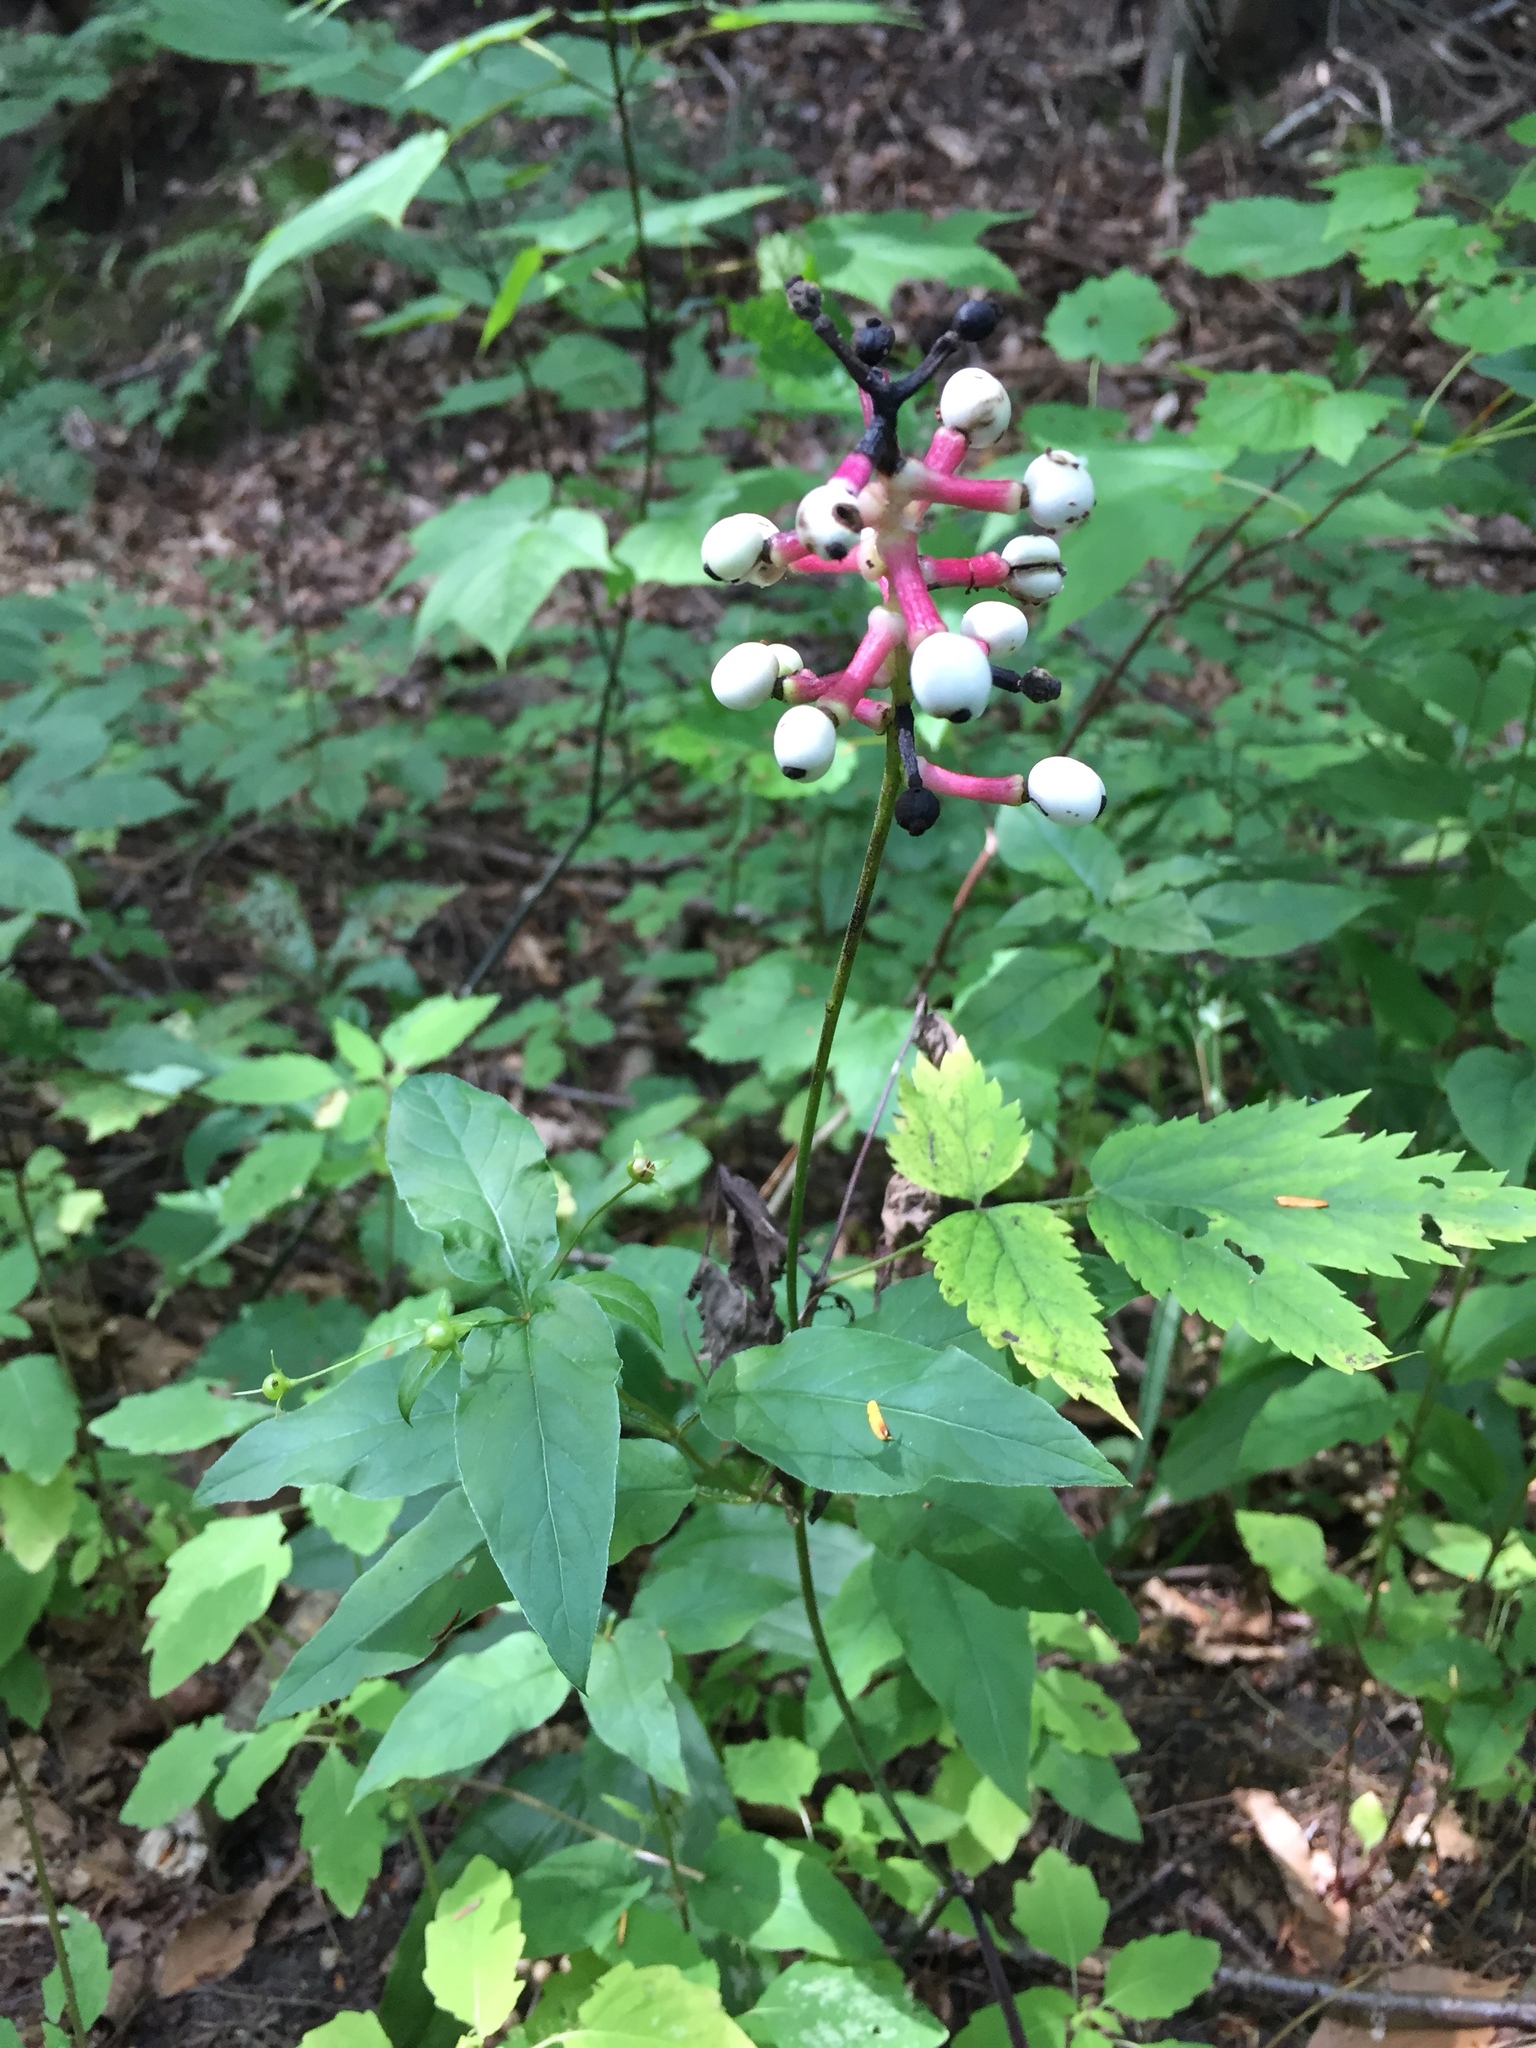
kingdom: Plantae
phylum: Tracheophyta
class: Magnoliopsida
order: Ranunculales
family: Ranunculaceae
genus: Actaea
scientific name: Actaea pachypoda
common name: Doll's-eyes
